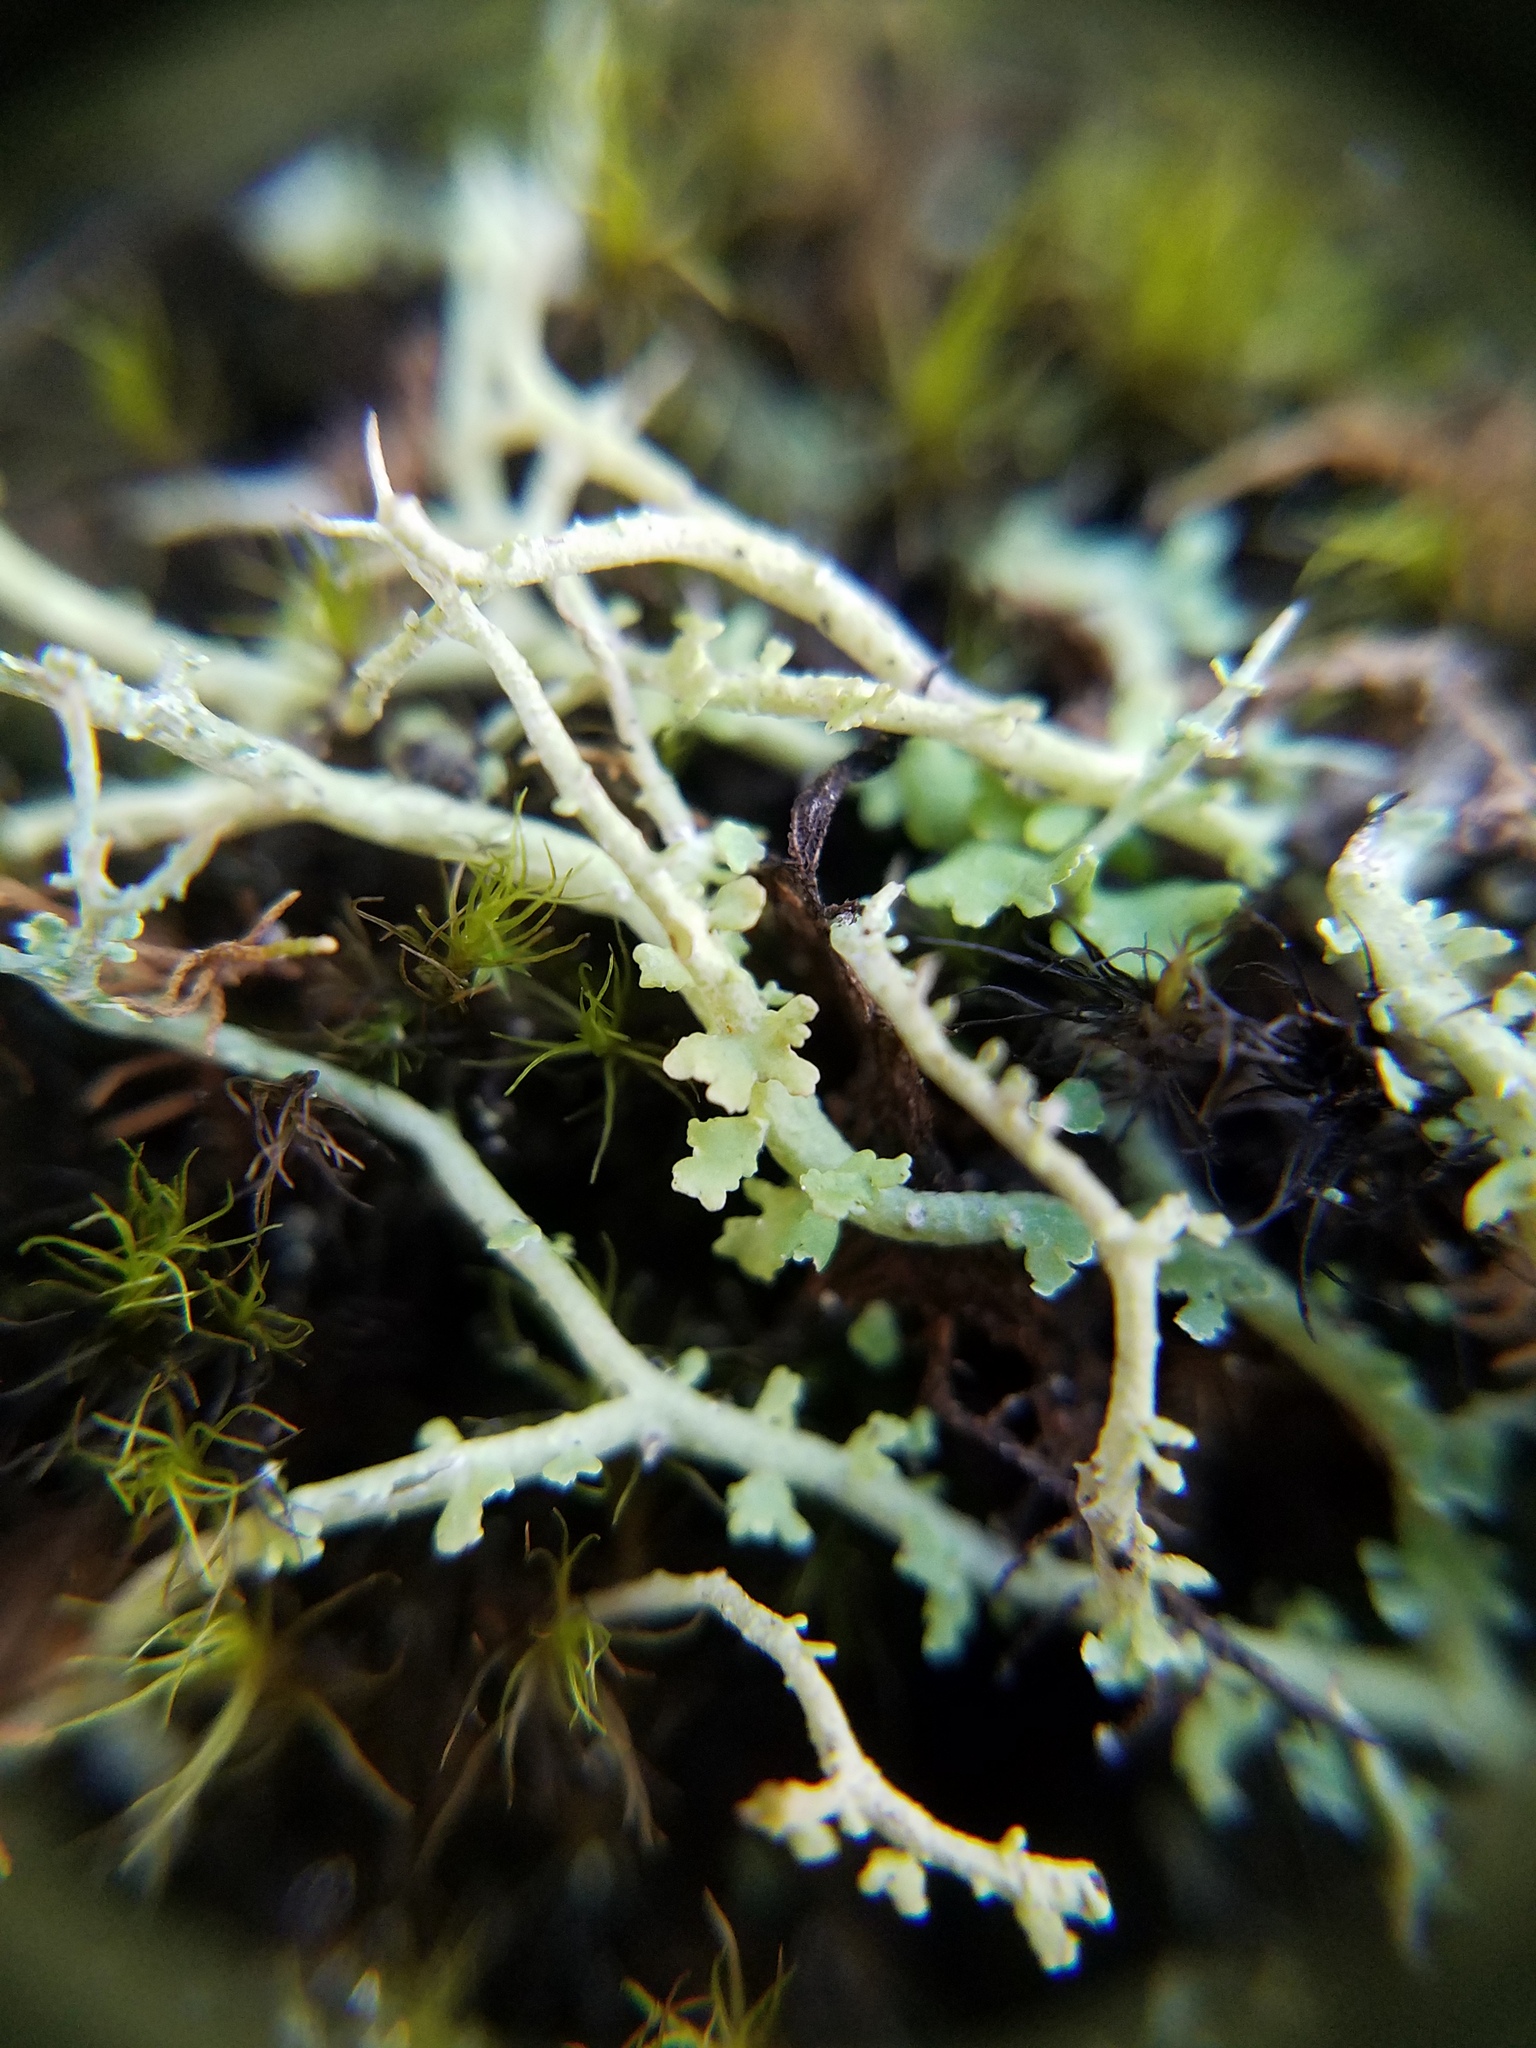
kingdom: Fungi
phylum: Ascomycota
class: Lecanoromycetes
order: Lecanorales
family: Cladoniaceae
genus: Cladonia
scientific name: Cladonia furcata
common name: Many-forked cladonia
